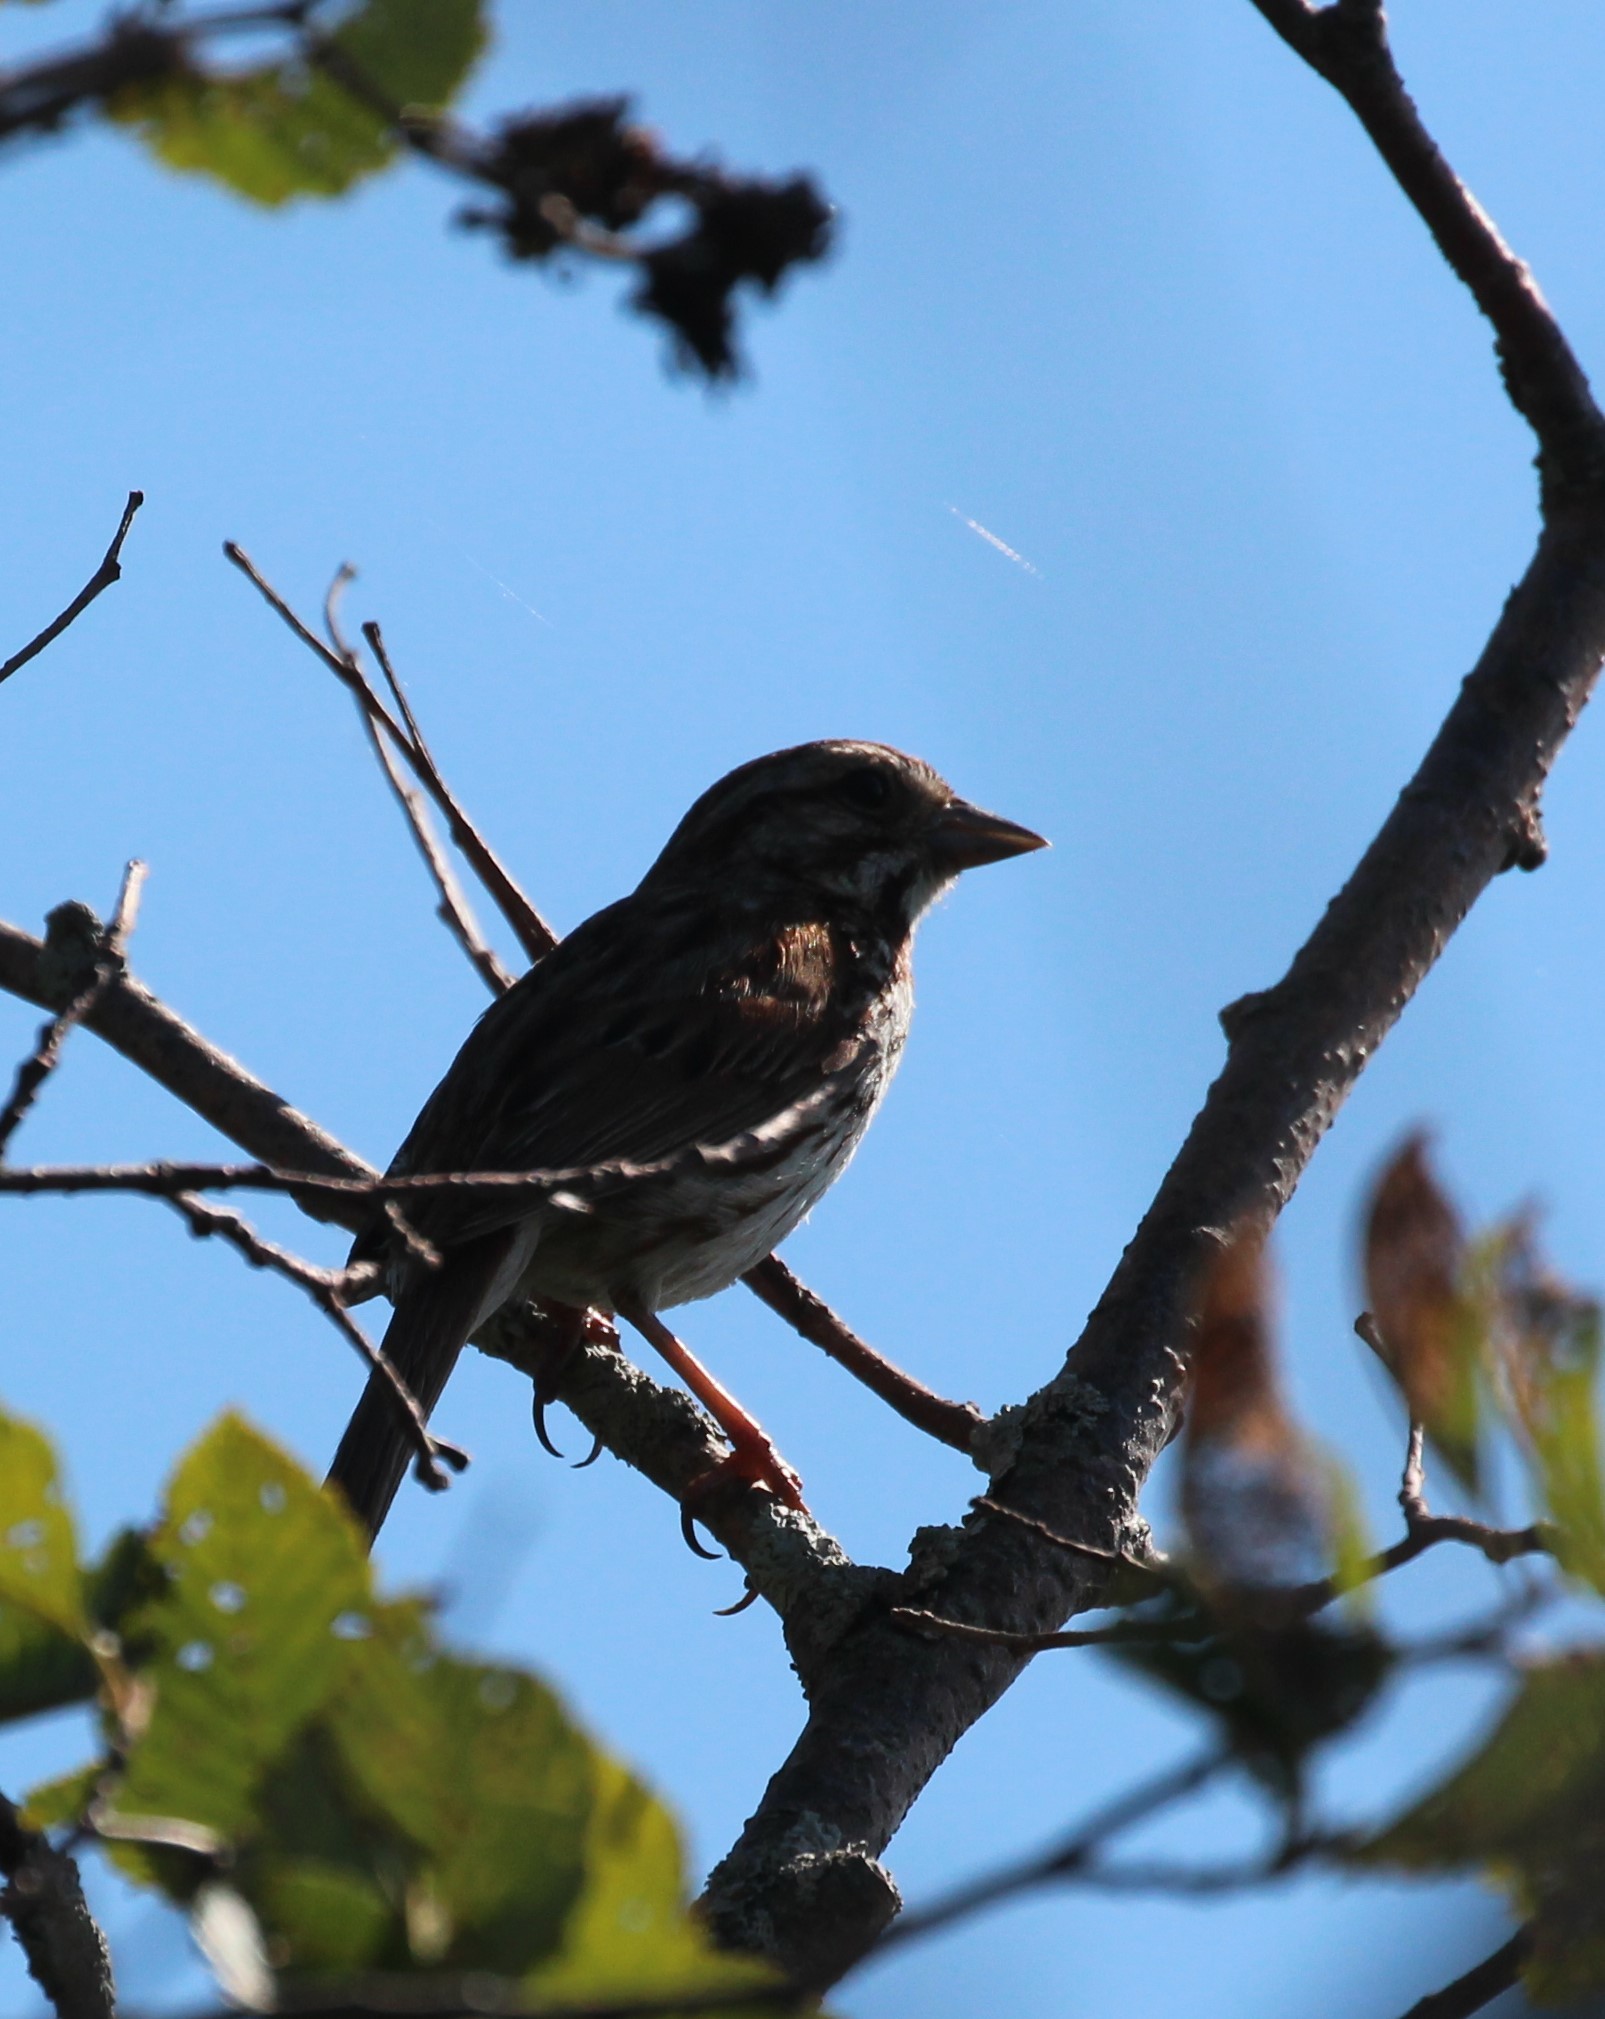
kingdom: Animalia
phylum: Chordata
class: Aves
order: Passeriformes
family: Passerellidae
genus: Melospiza
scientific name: Melospiza melodia
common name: Song sparrow
